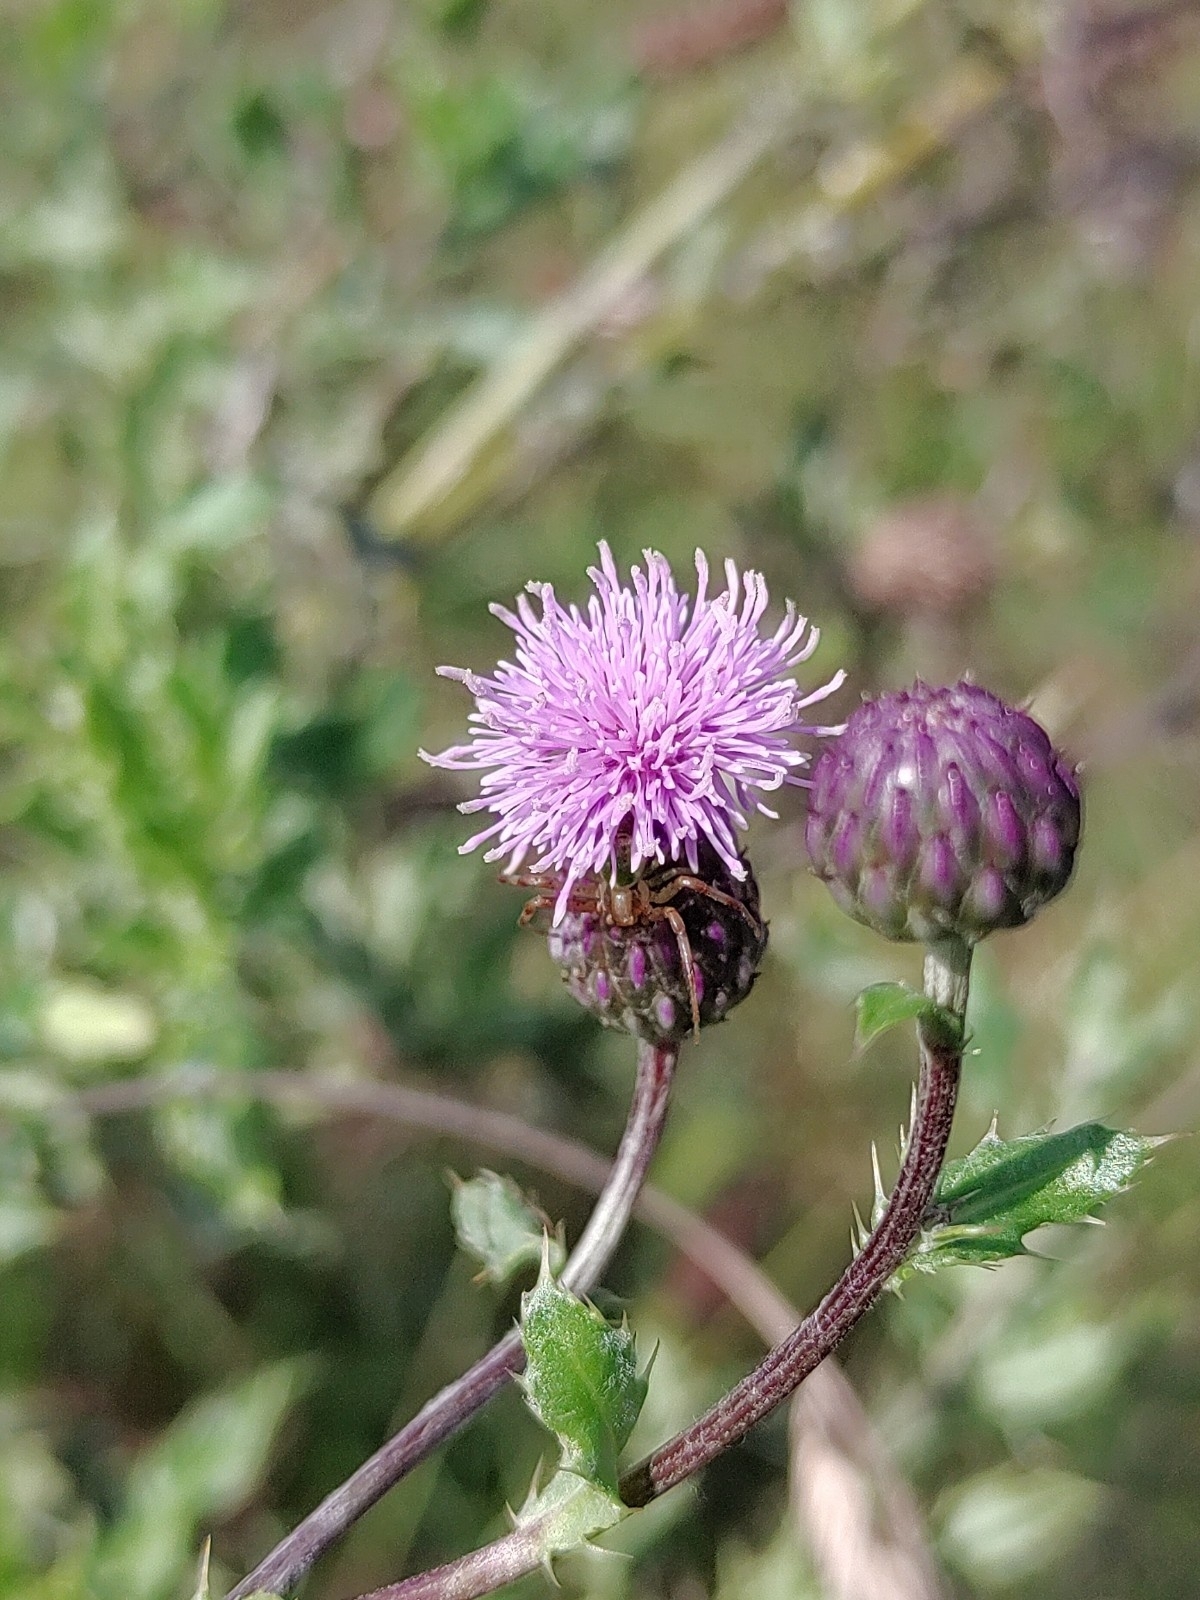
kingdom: Plantae
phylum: Tracheophyta
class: Magnoliopsida
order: Asterales
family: Asteraceae
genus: Cirsium
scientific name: Cirsium arvense
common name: Creeping thistle
